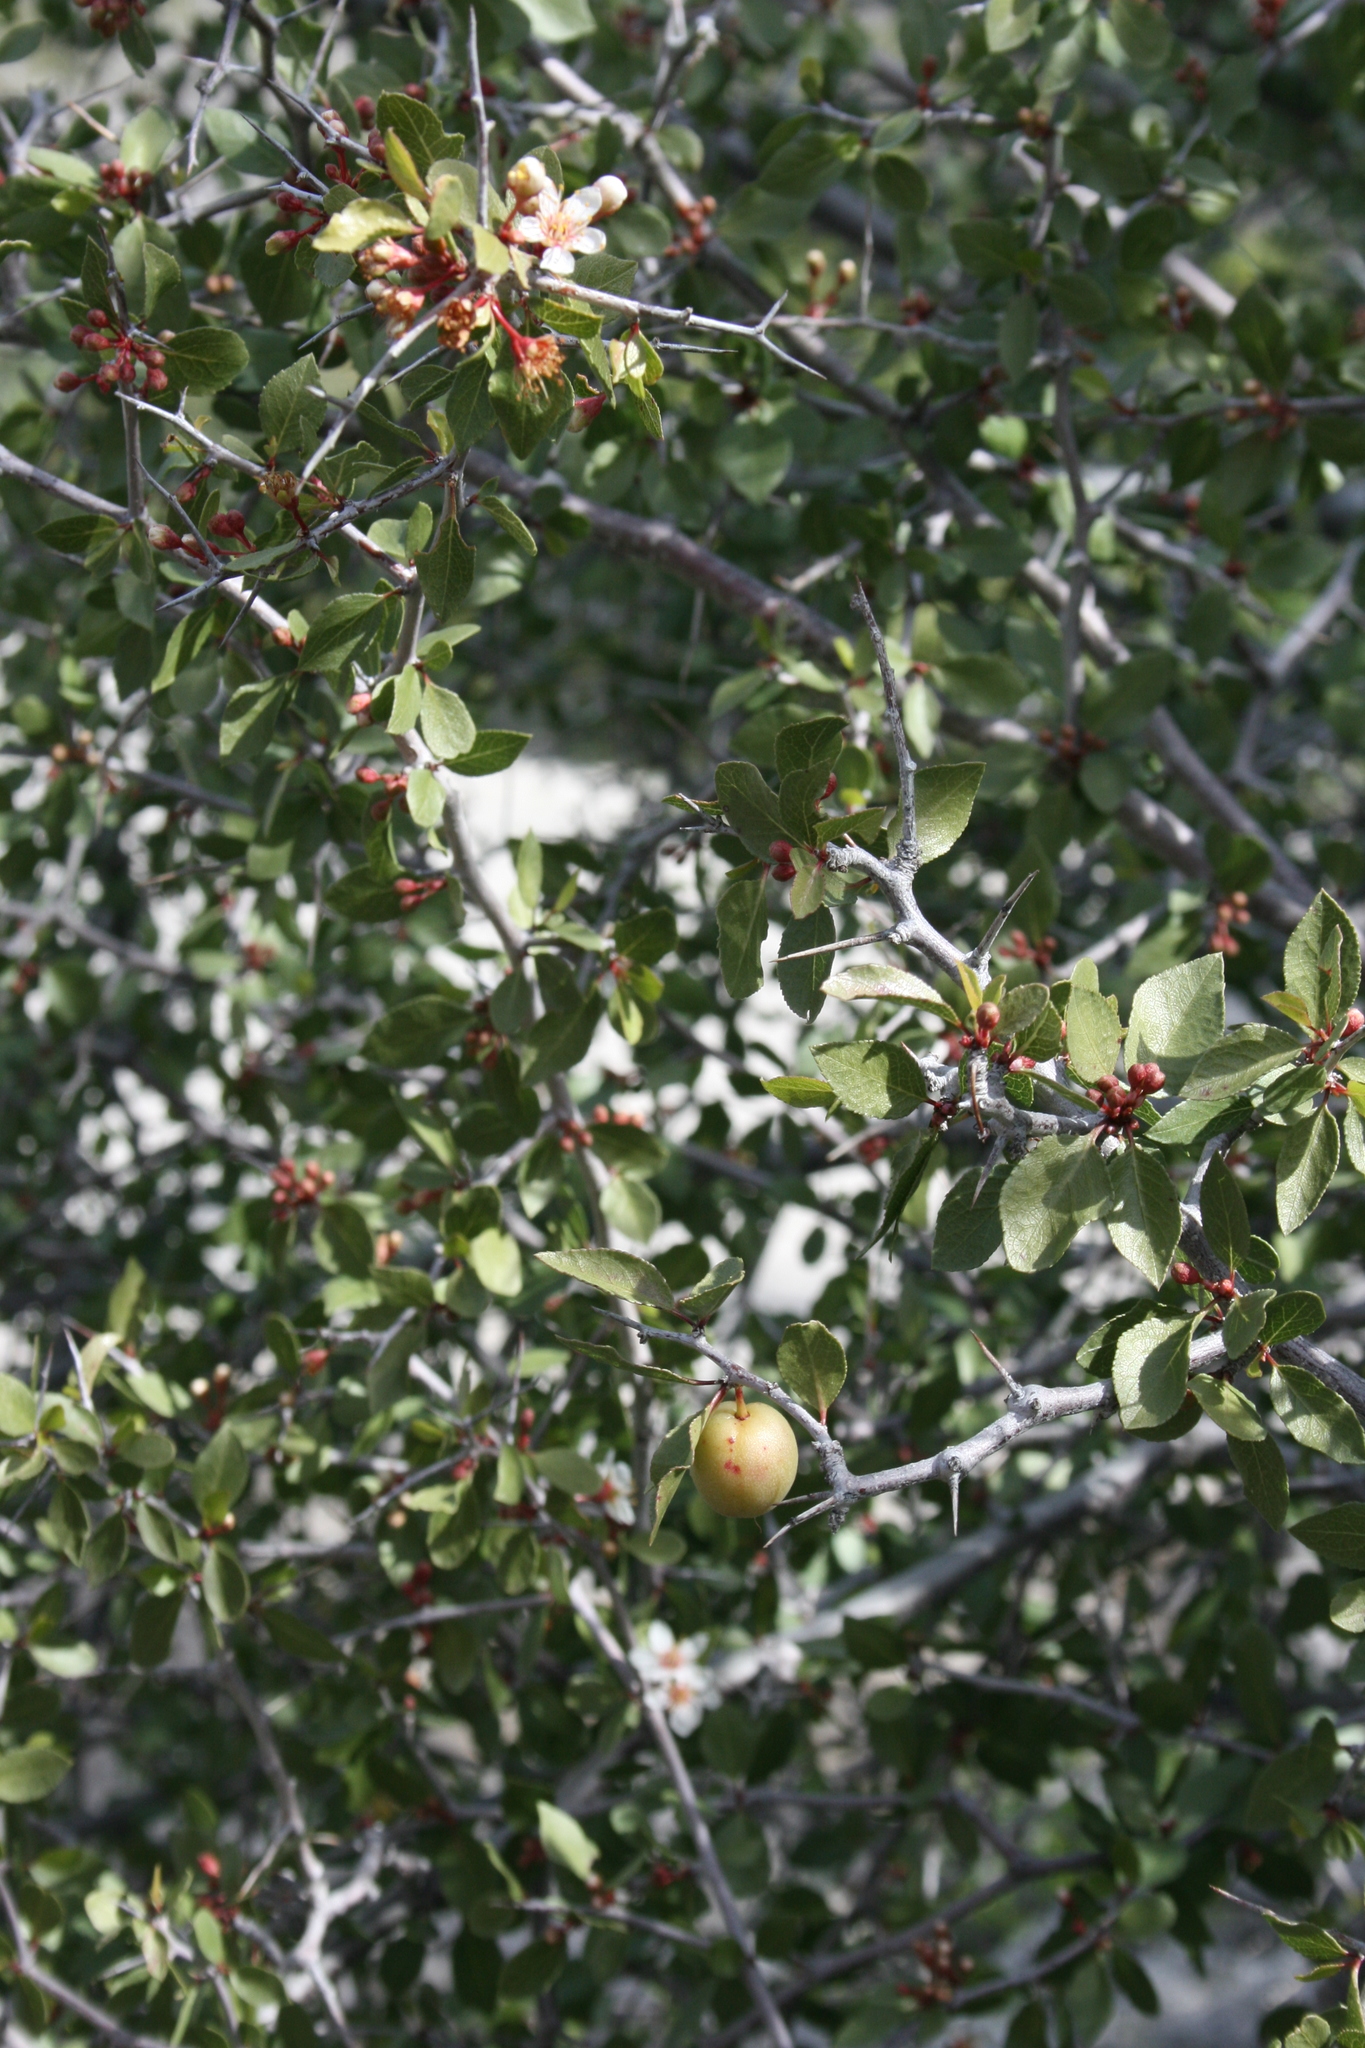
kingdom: Plantae
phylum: Tracheophyta
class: Magnoliopsida
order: Rosales
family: Rosaceae
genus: Prunus
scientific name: Prunus fremontii
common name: Desert apricot
